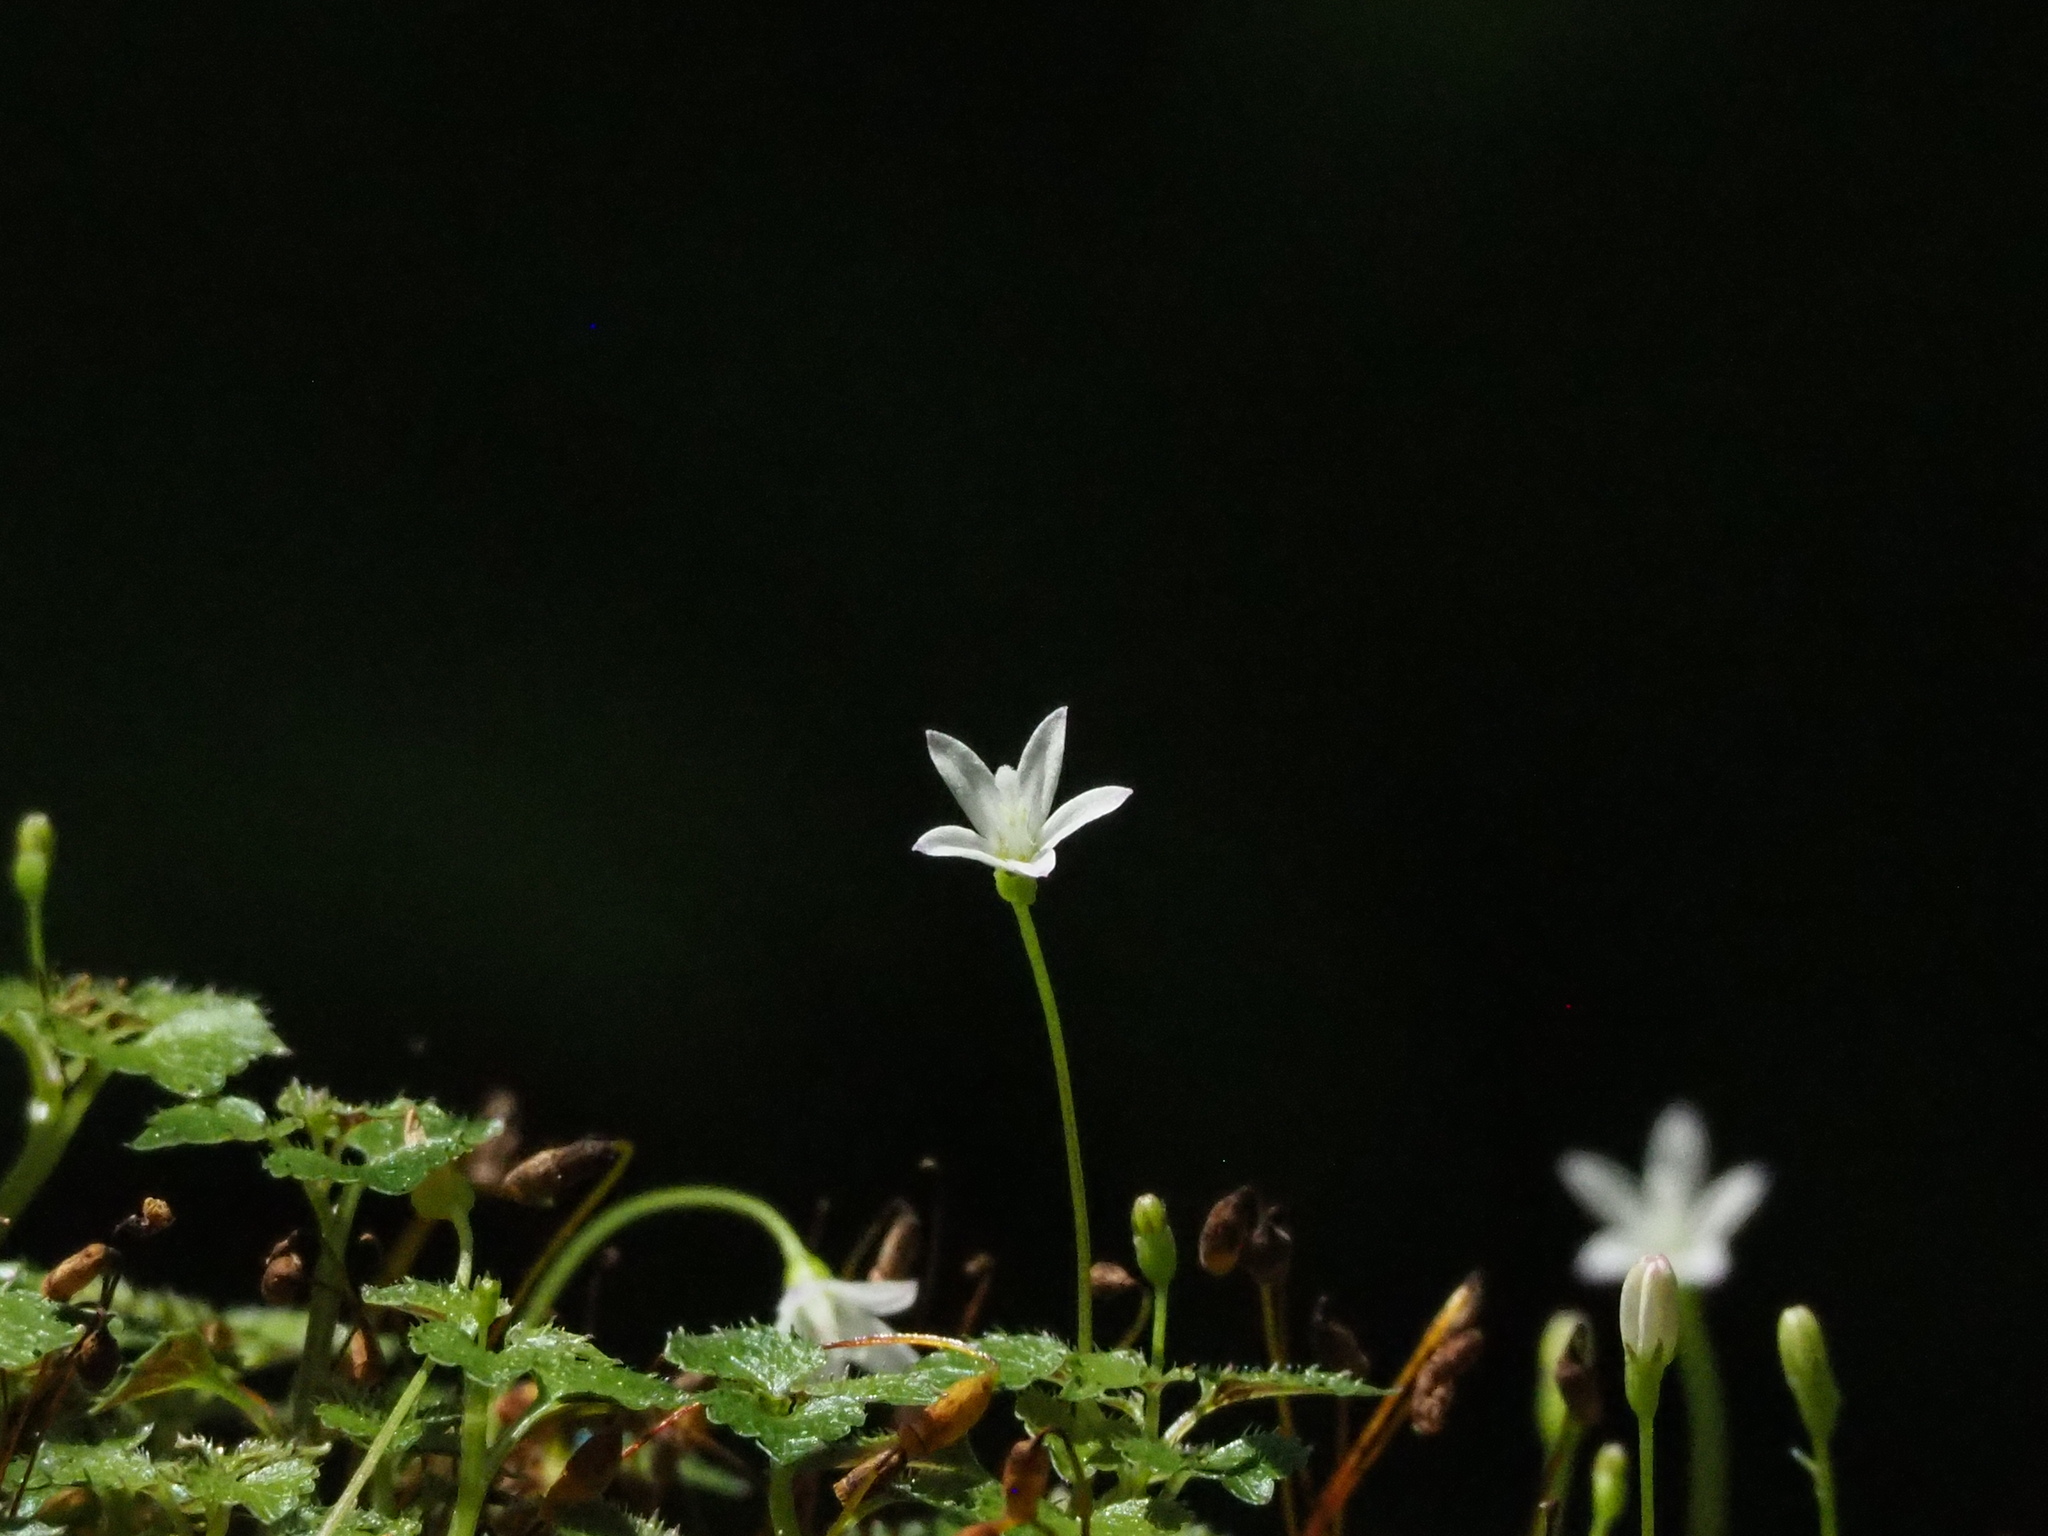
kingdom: Plantae
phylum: Tracheophyta
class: Magnoliopsida
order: Asterales
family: Campanulaceae
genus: Peracarpa
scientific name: Peracarpa carnosa
